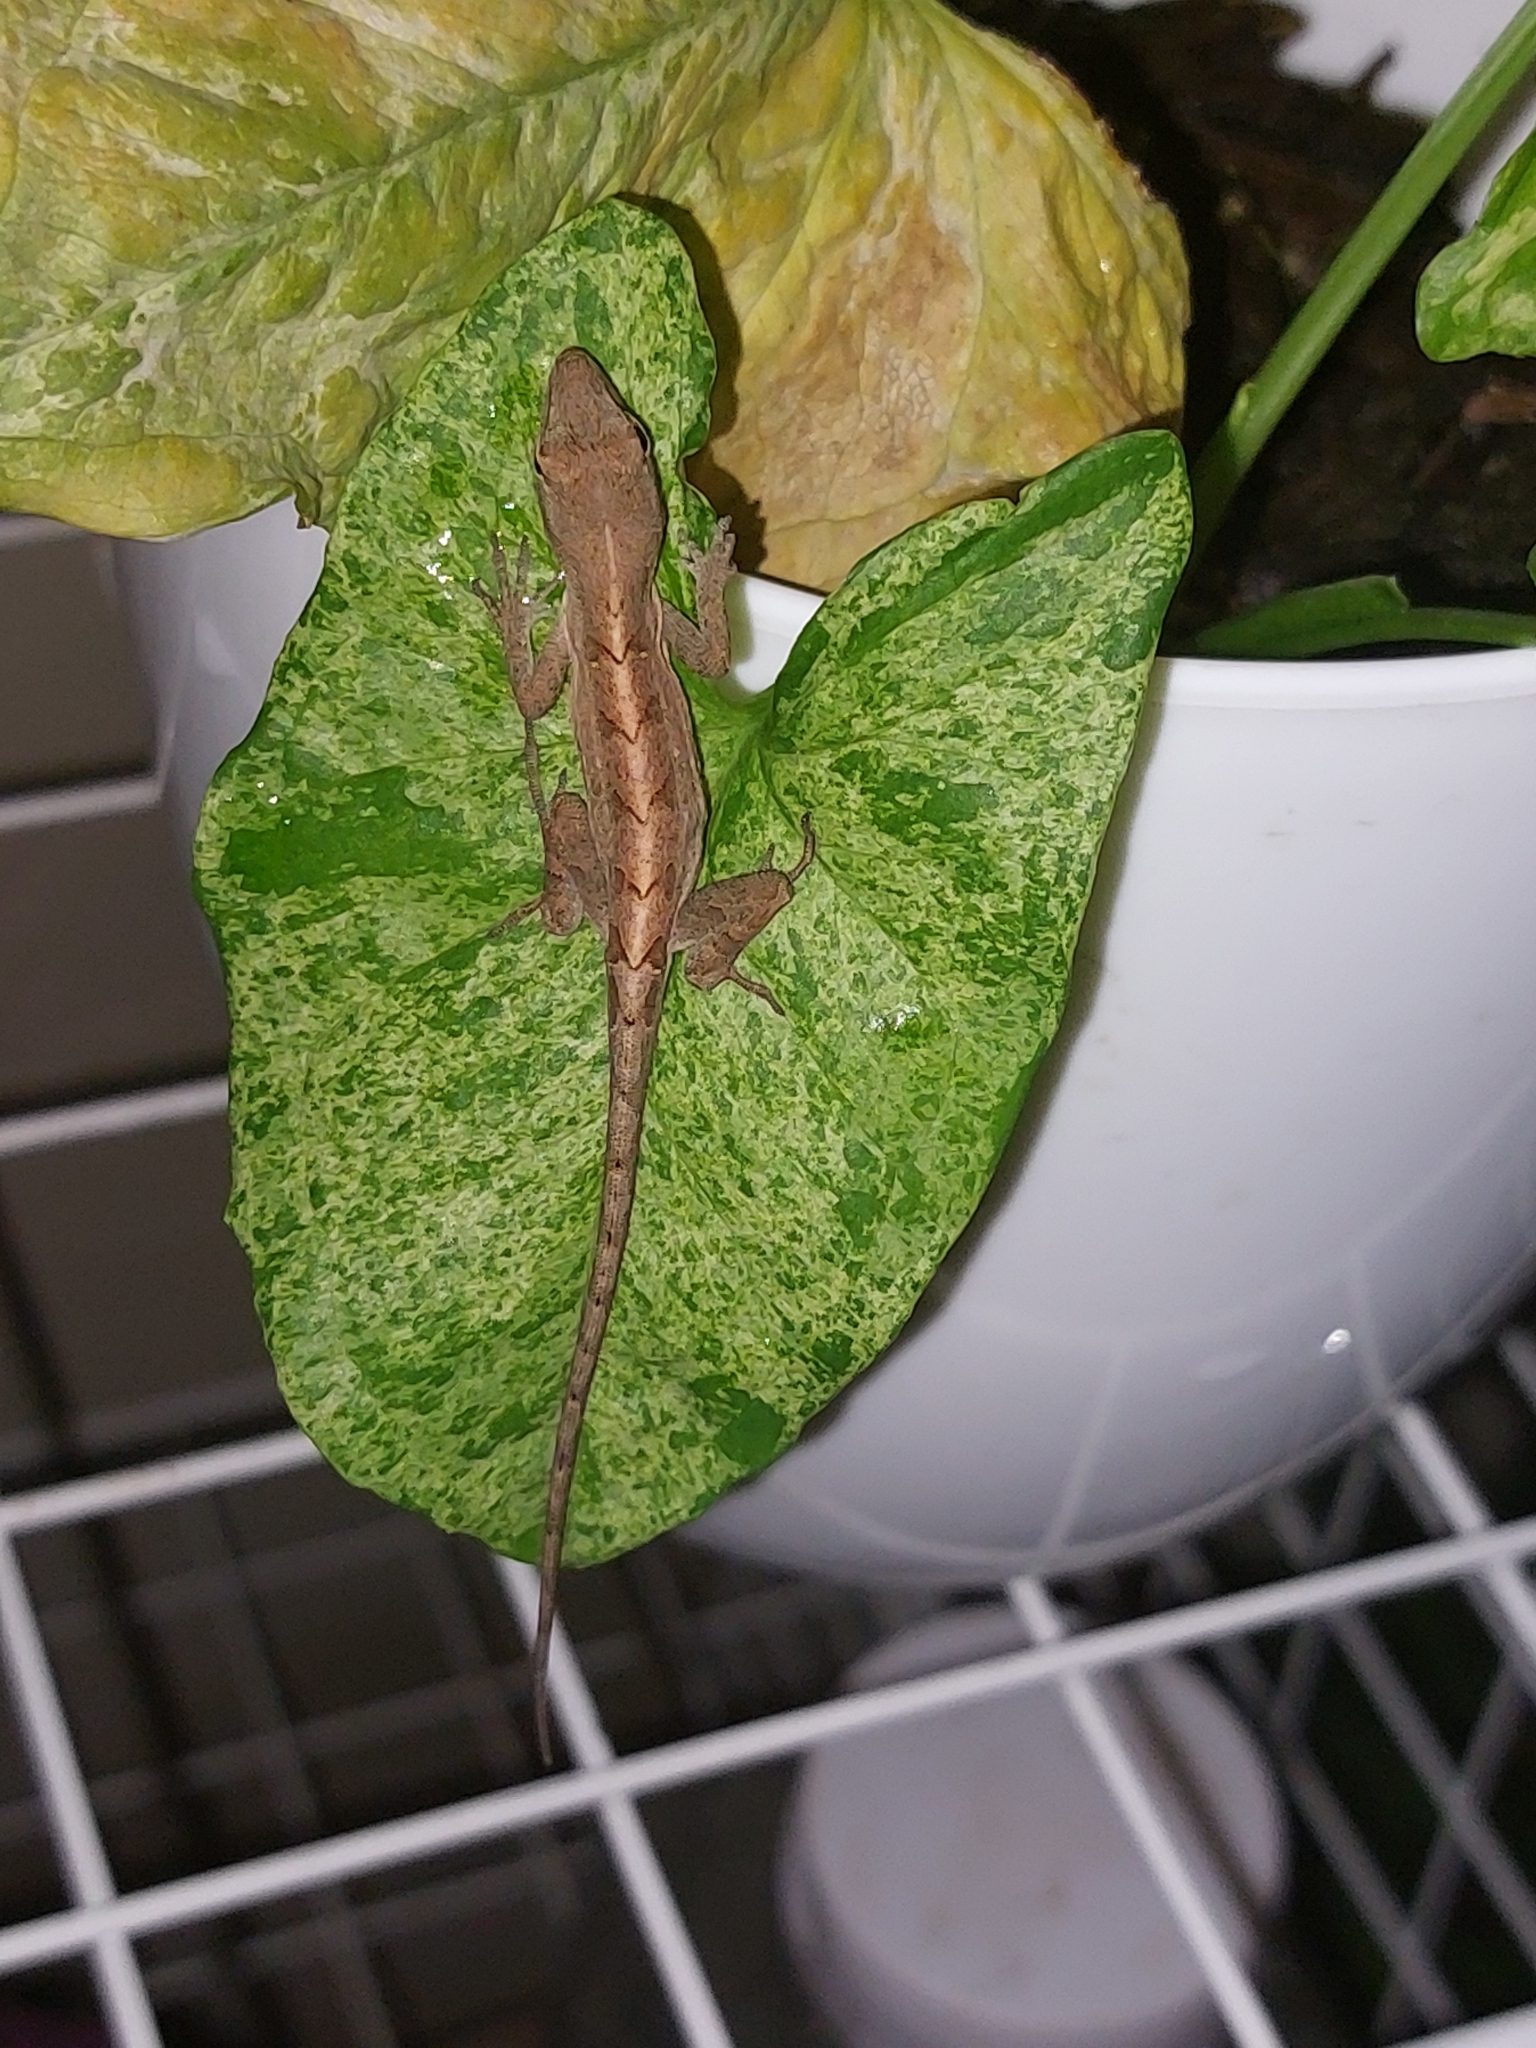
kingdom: Animalia
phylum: Chordata
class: Squamata
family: Dactyloidae
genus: Anolis
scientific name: Anolis sagrei
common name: Brown anole
